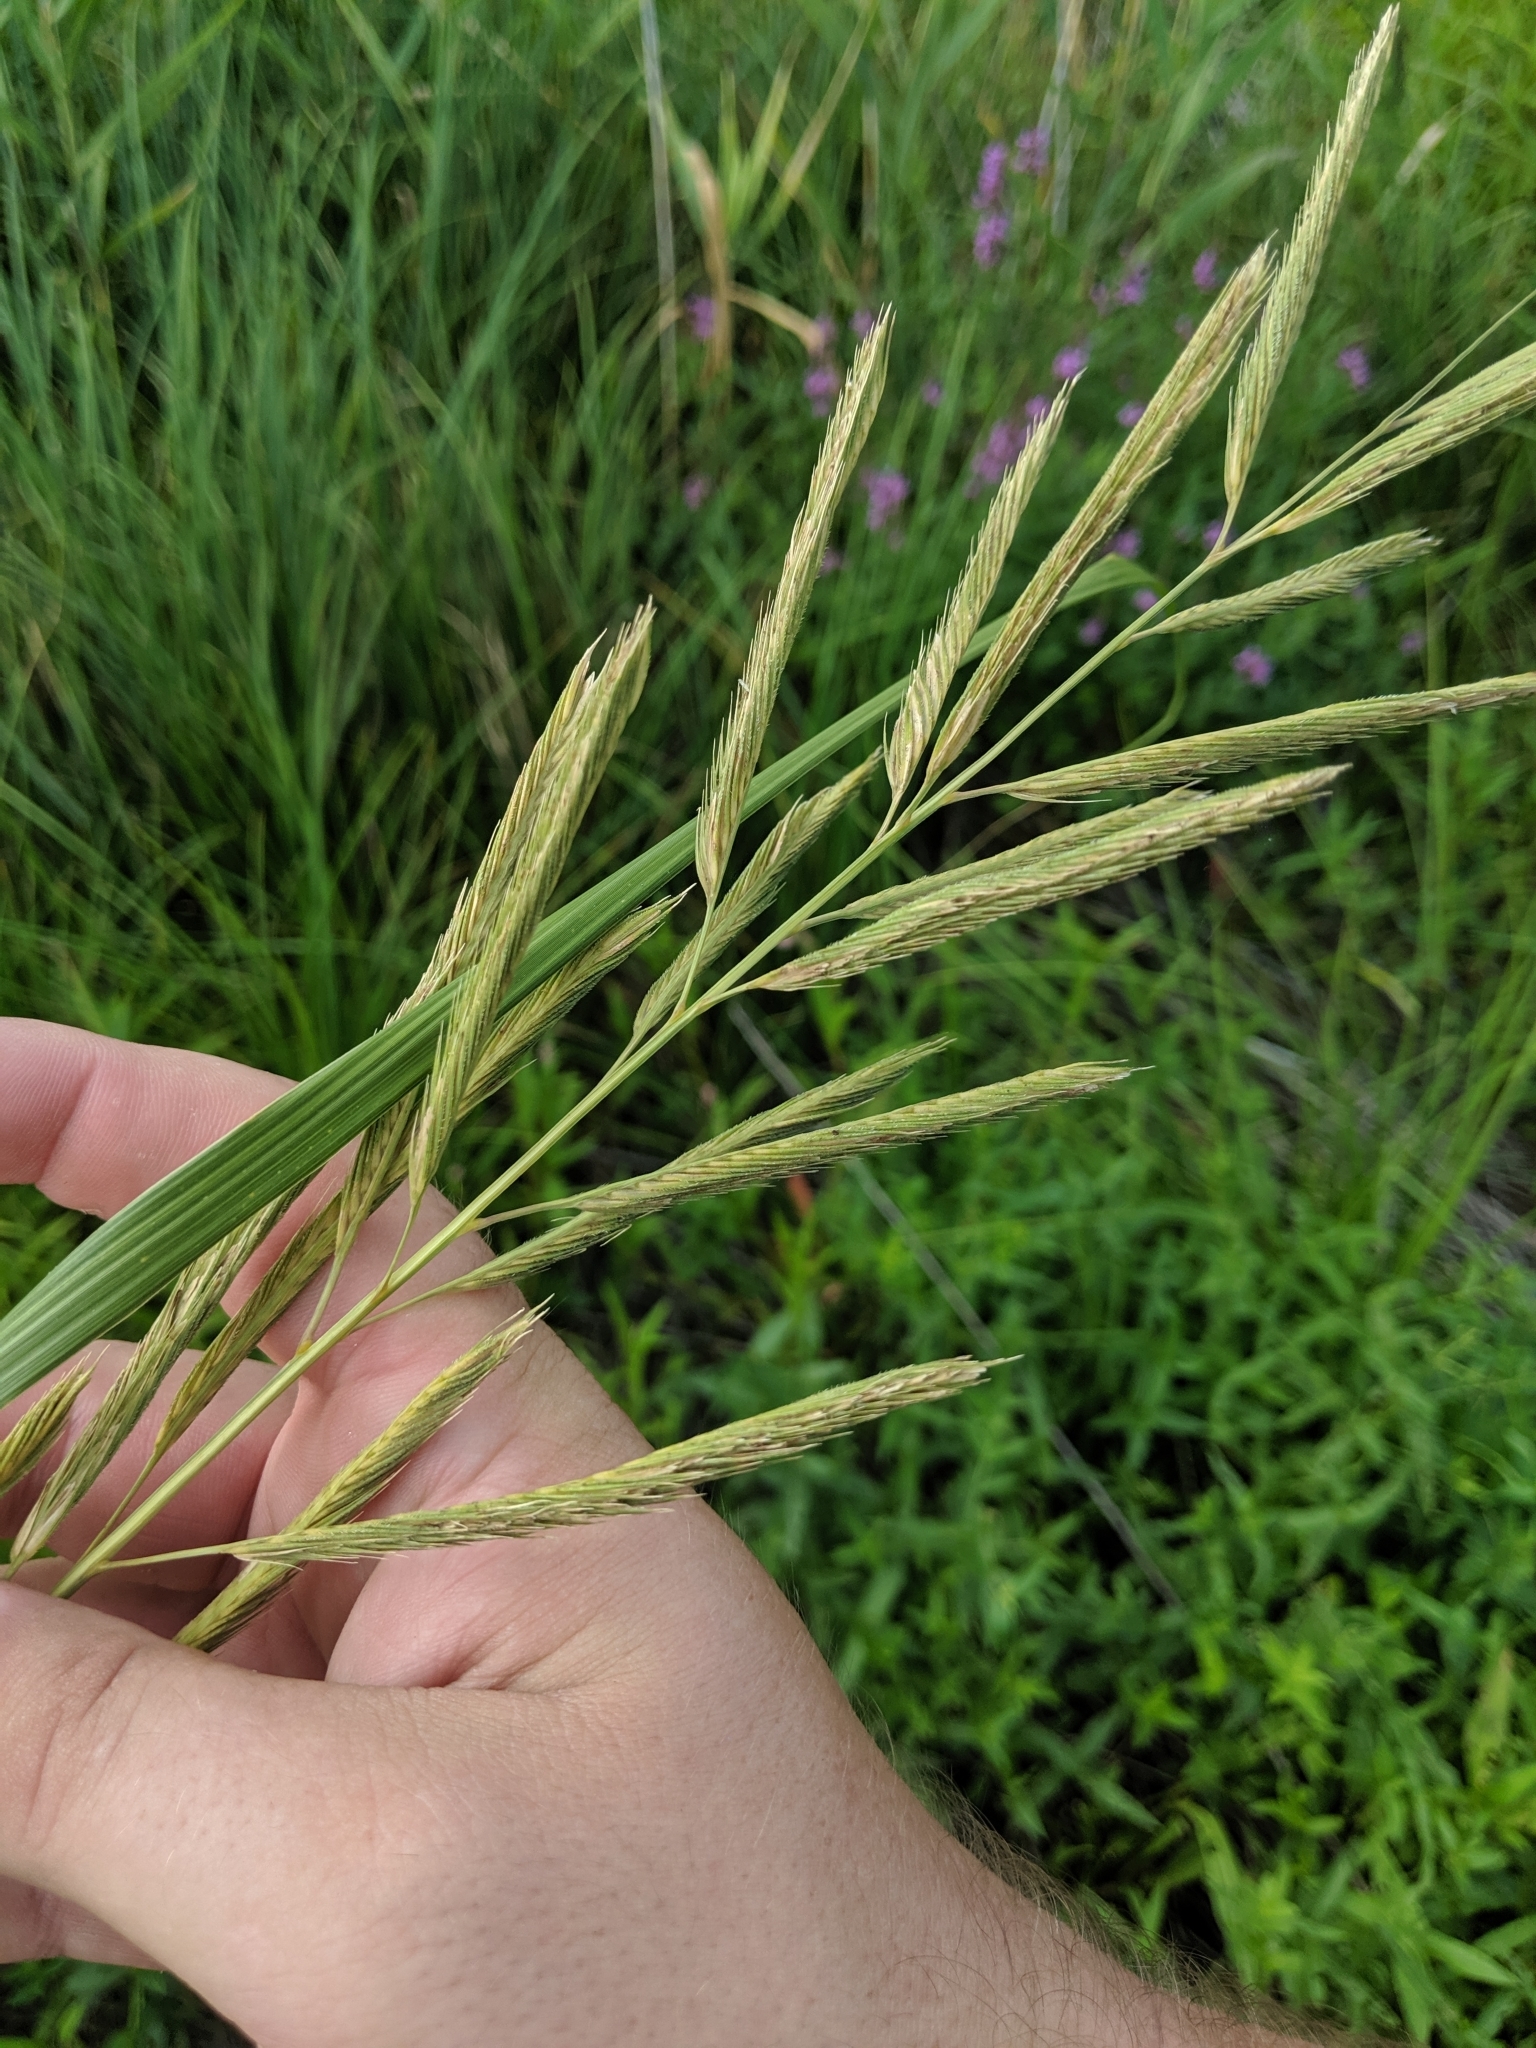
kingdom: Plantae
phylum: Tracheophyta
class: Liliopsida
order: Poales
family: Poaceae
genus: Sporobolus
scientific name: Sporobolus michauxianus
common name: Freshwater cordgrass
